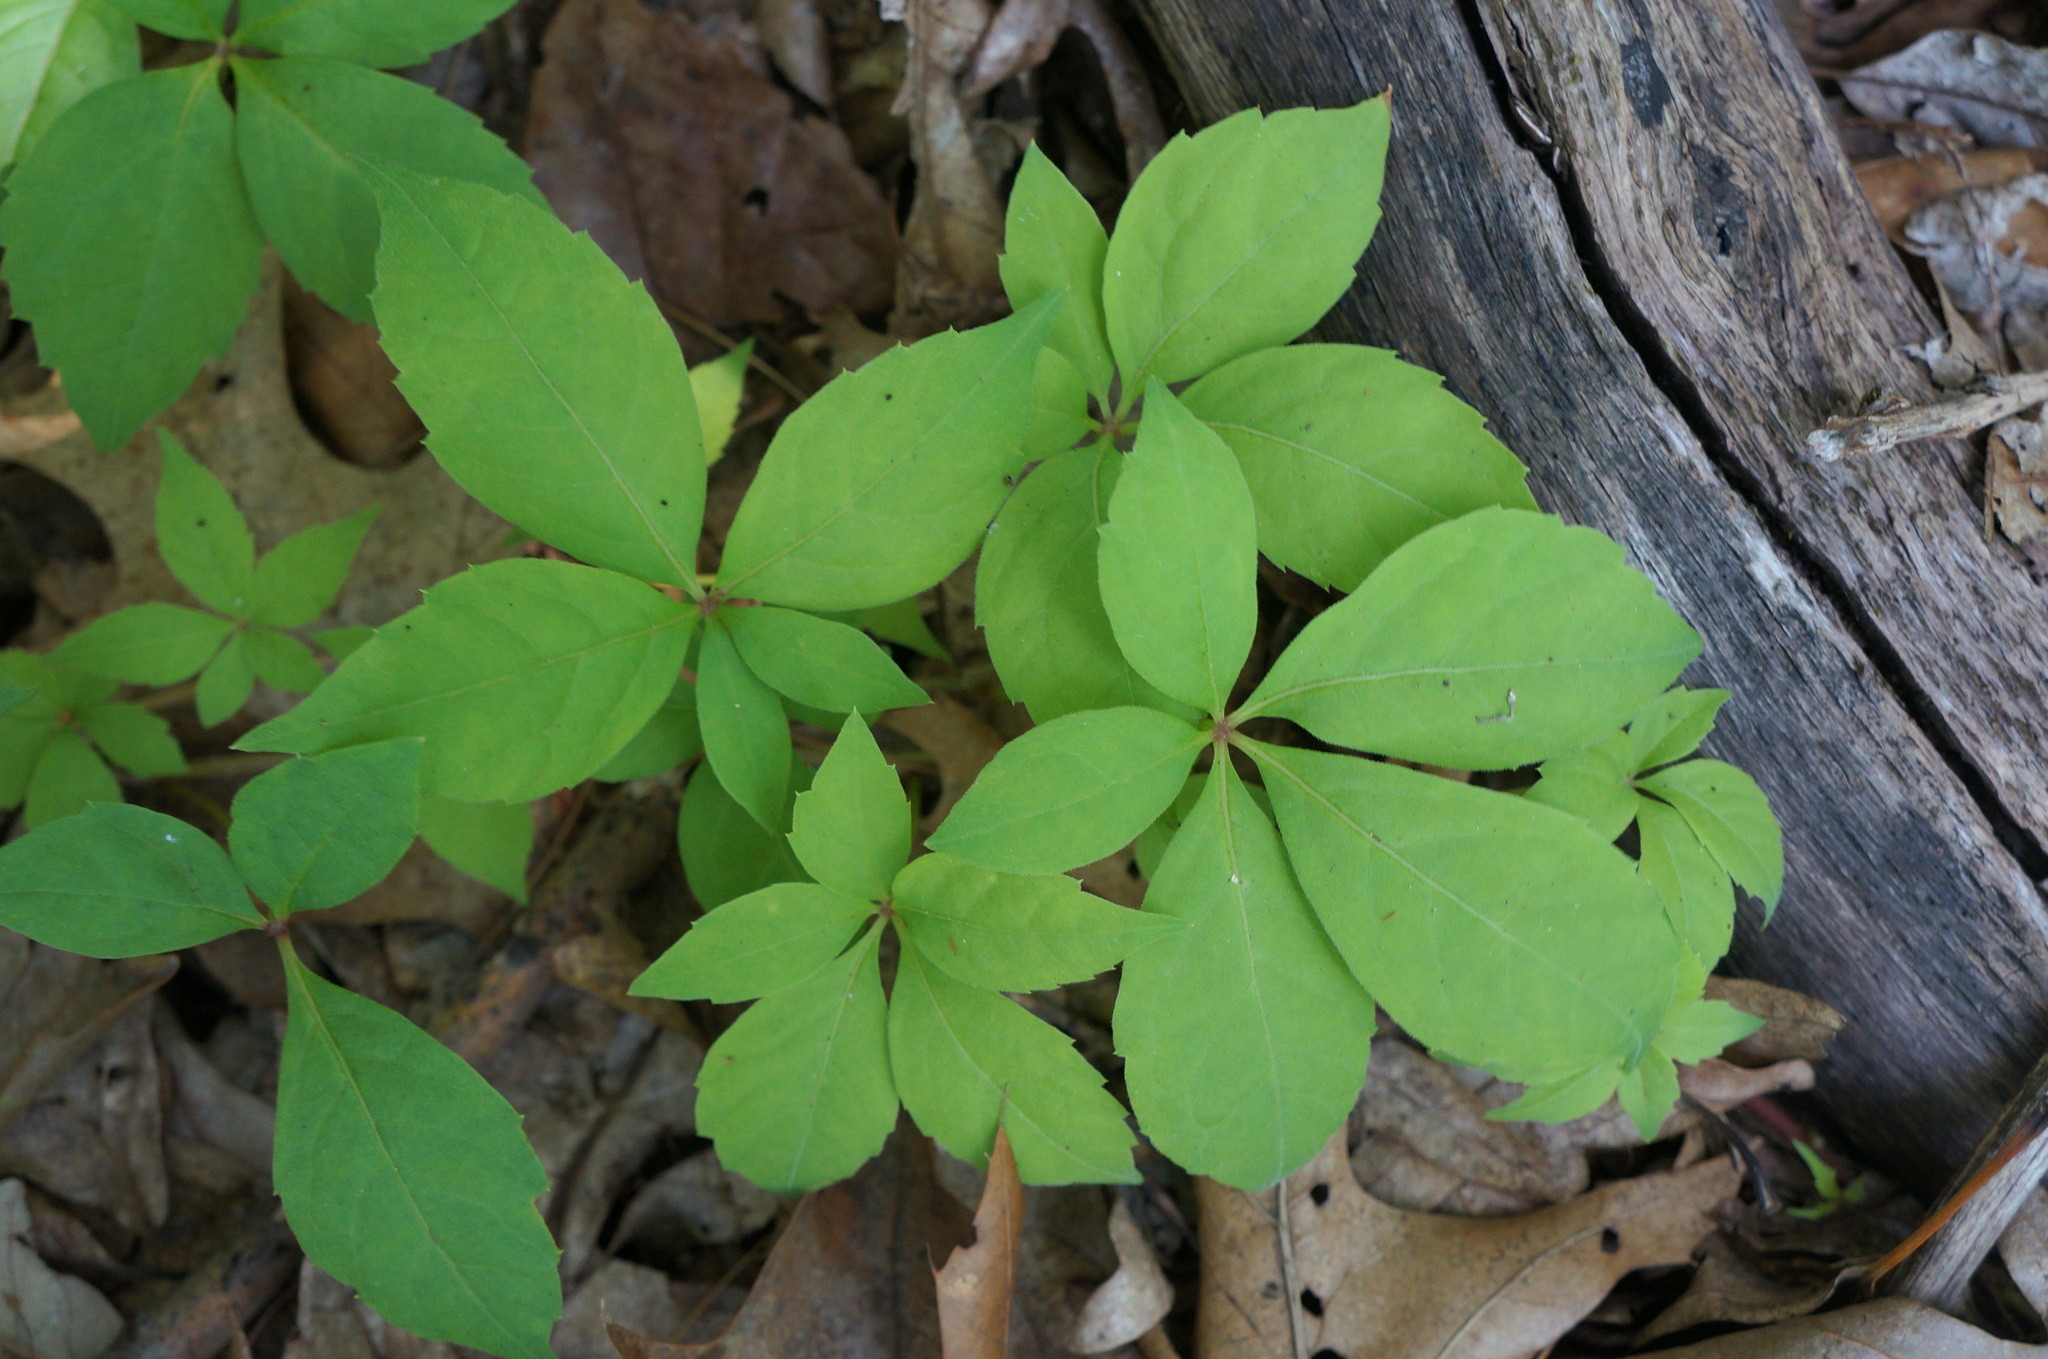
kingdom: Plantae
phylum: Tracheophyta
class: Magnoliopsida
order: Vitales
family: Vitaceae
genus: Parthenocissus
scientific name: Parthenocissus quinquefolia
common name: Virginia-creeper
